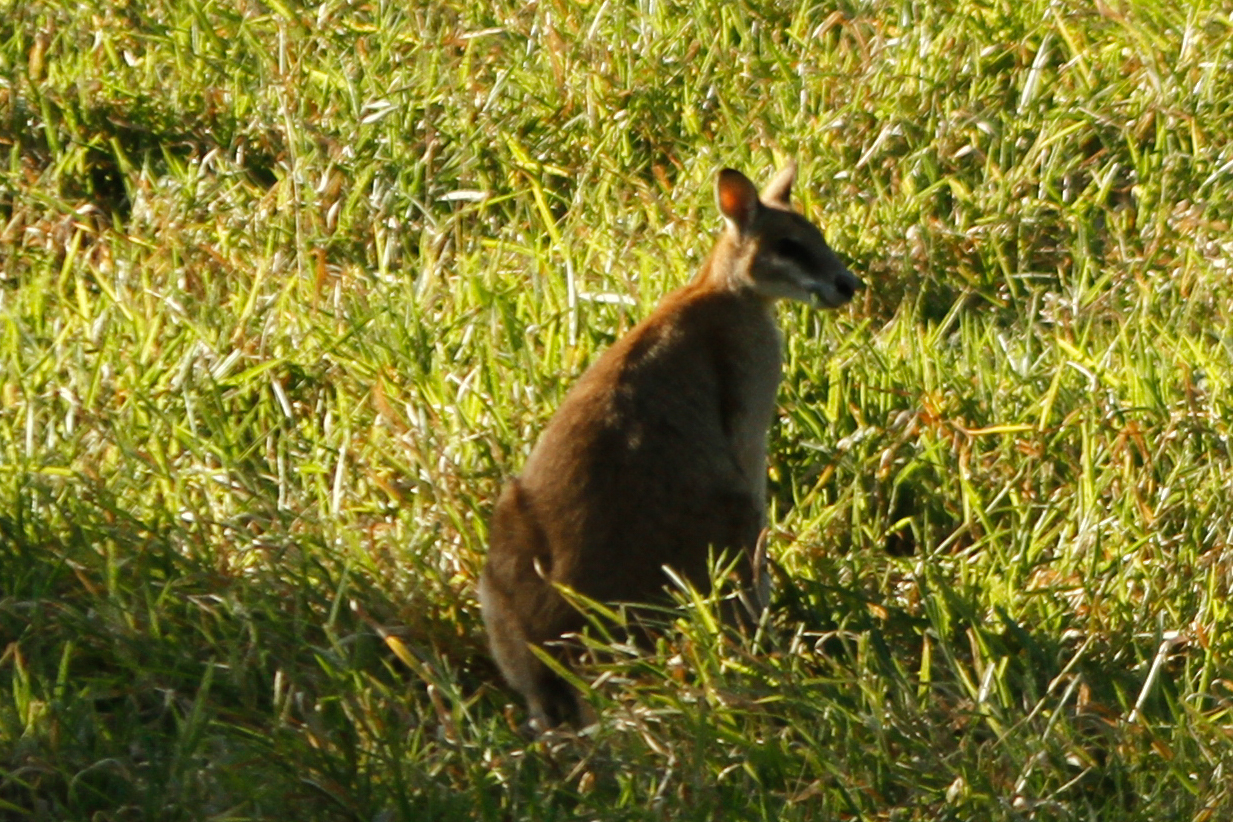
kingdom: Animalia
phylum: Chordata
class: Mammalia
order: Diprotodontia
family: Macropodidae
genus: Macropus
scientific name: Macropus agilis
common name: Agile wallaby
